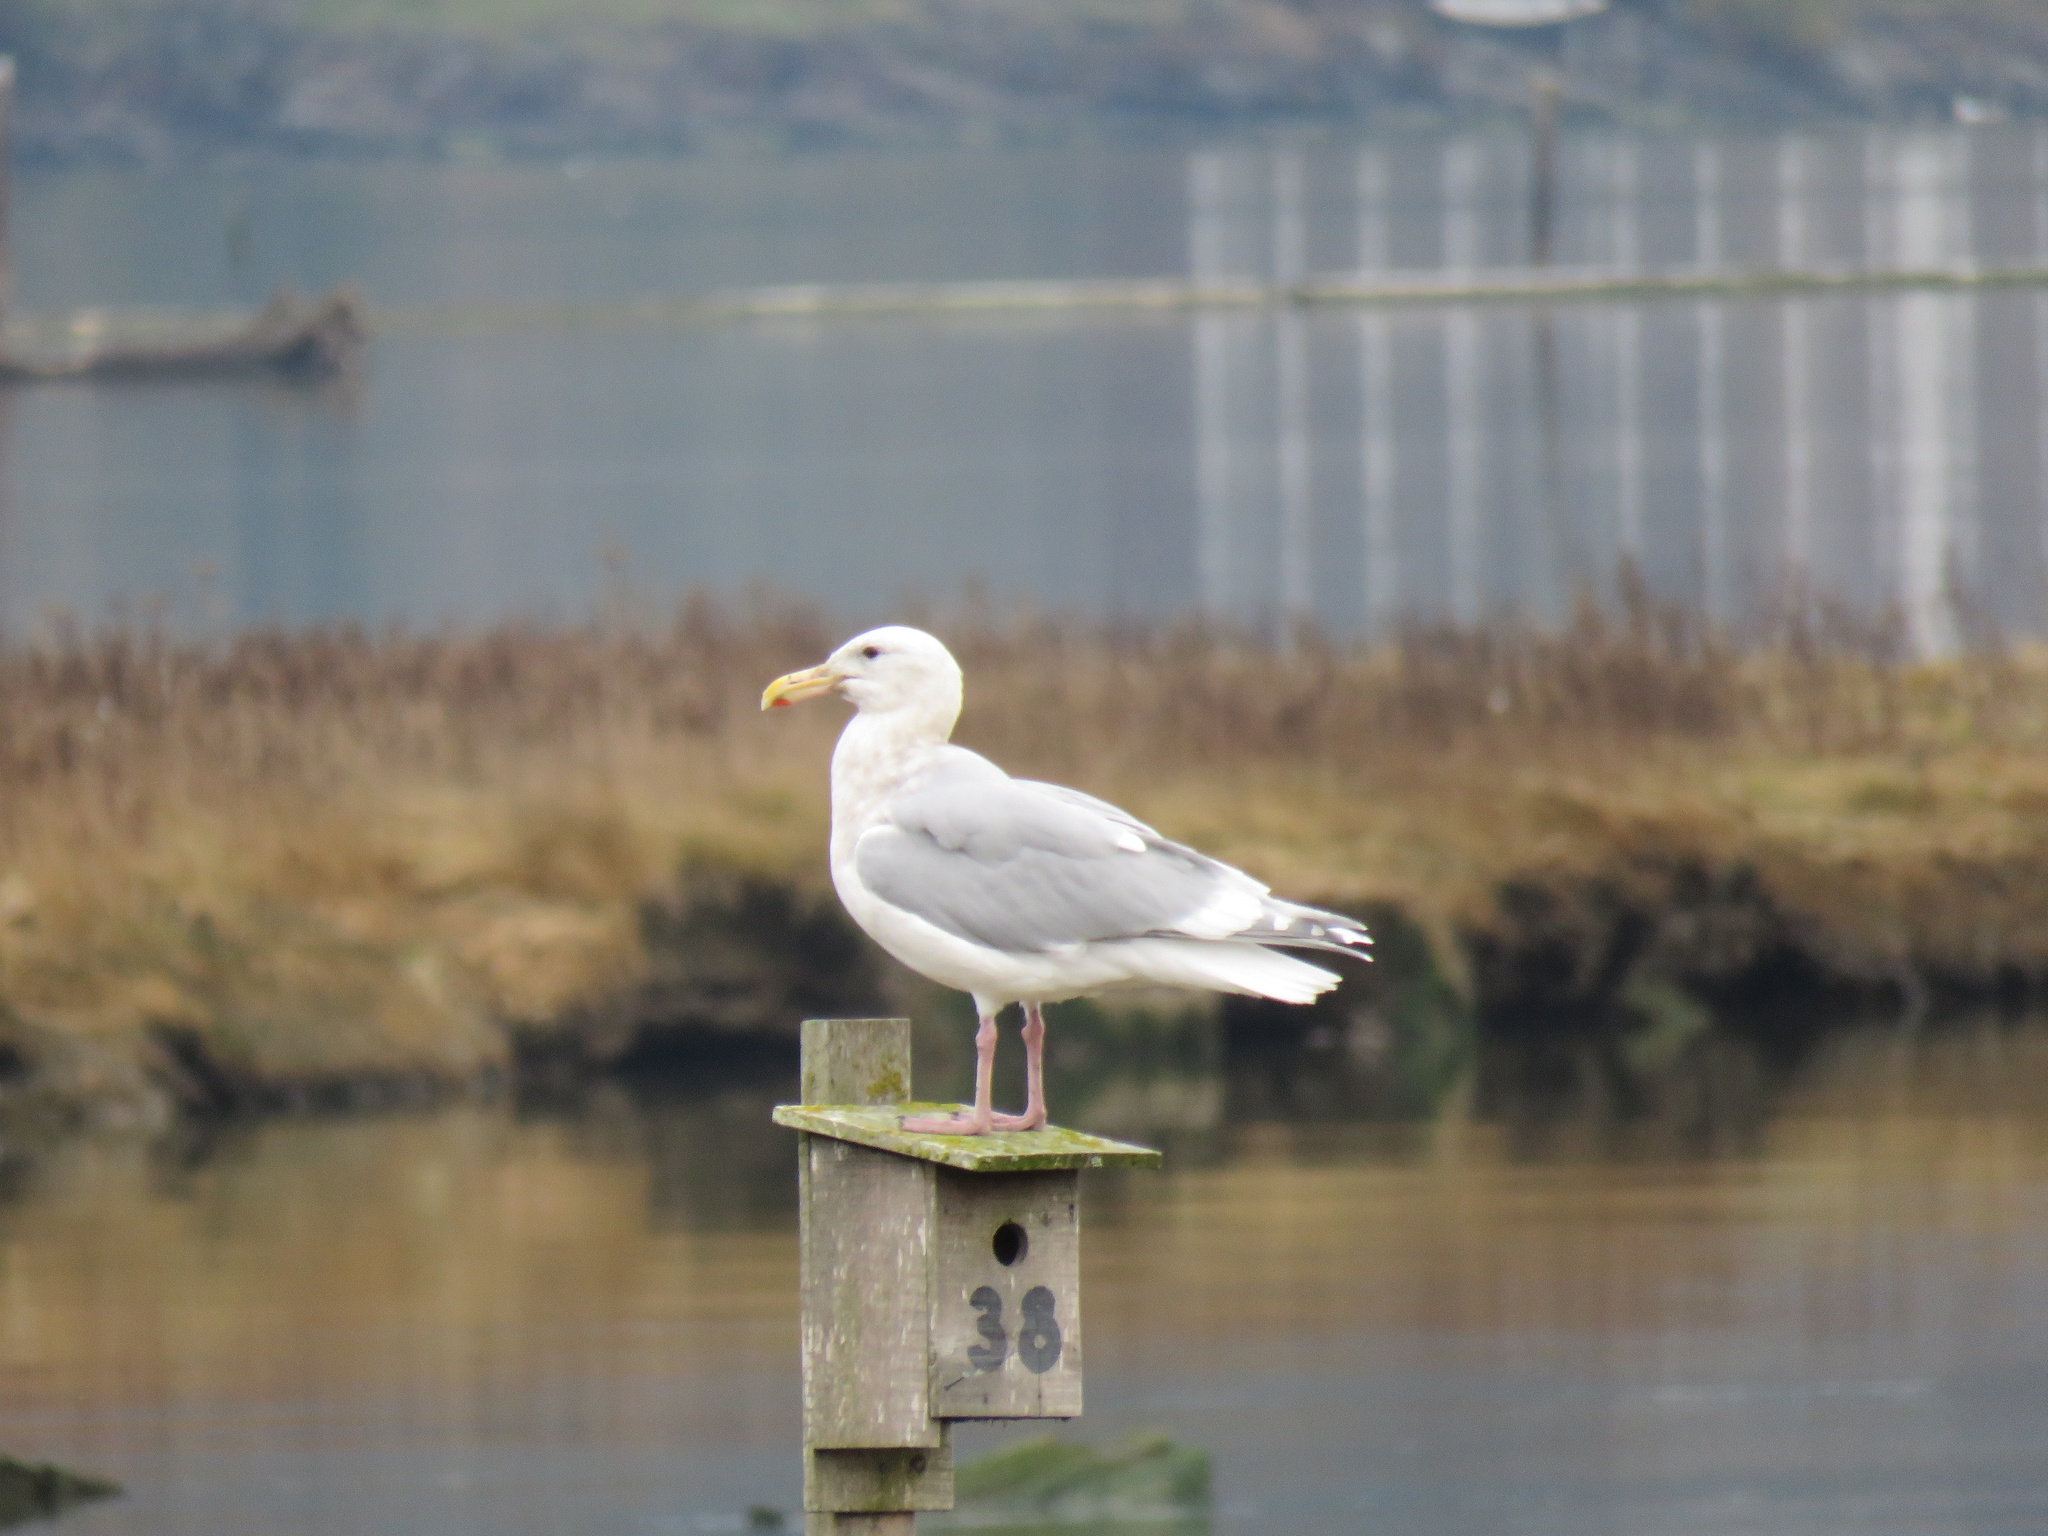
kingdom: Animalia
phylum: Chordata
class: Aves
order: Charadriiformes
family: Laridae
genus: Larus
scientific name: Larus glaucescens
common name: Glaucous-winged gull
